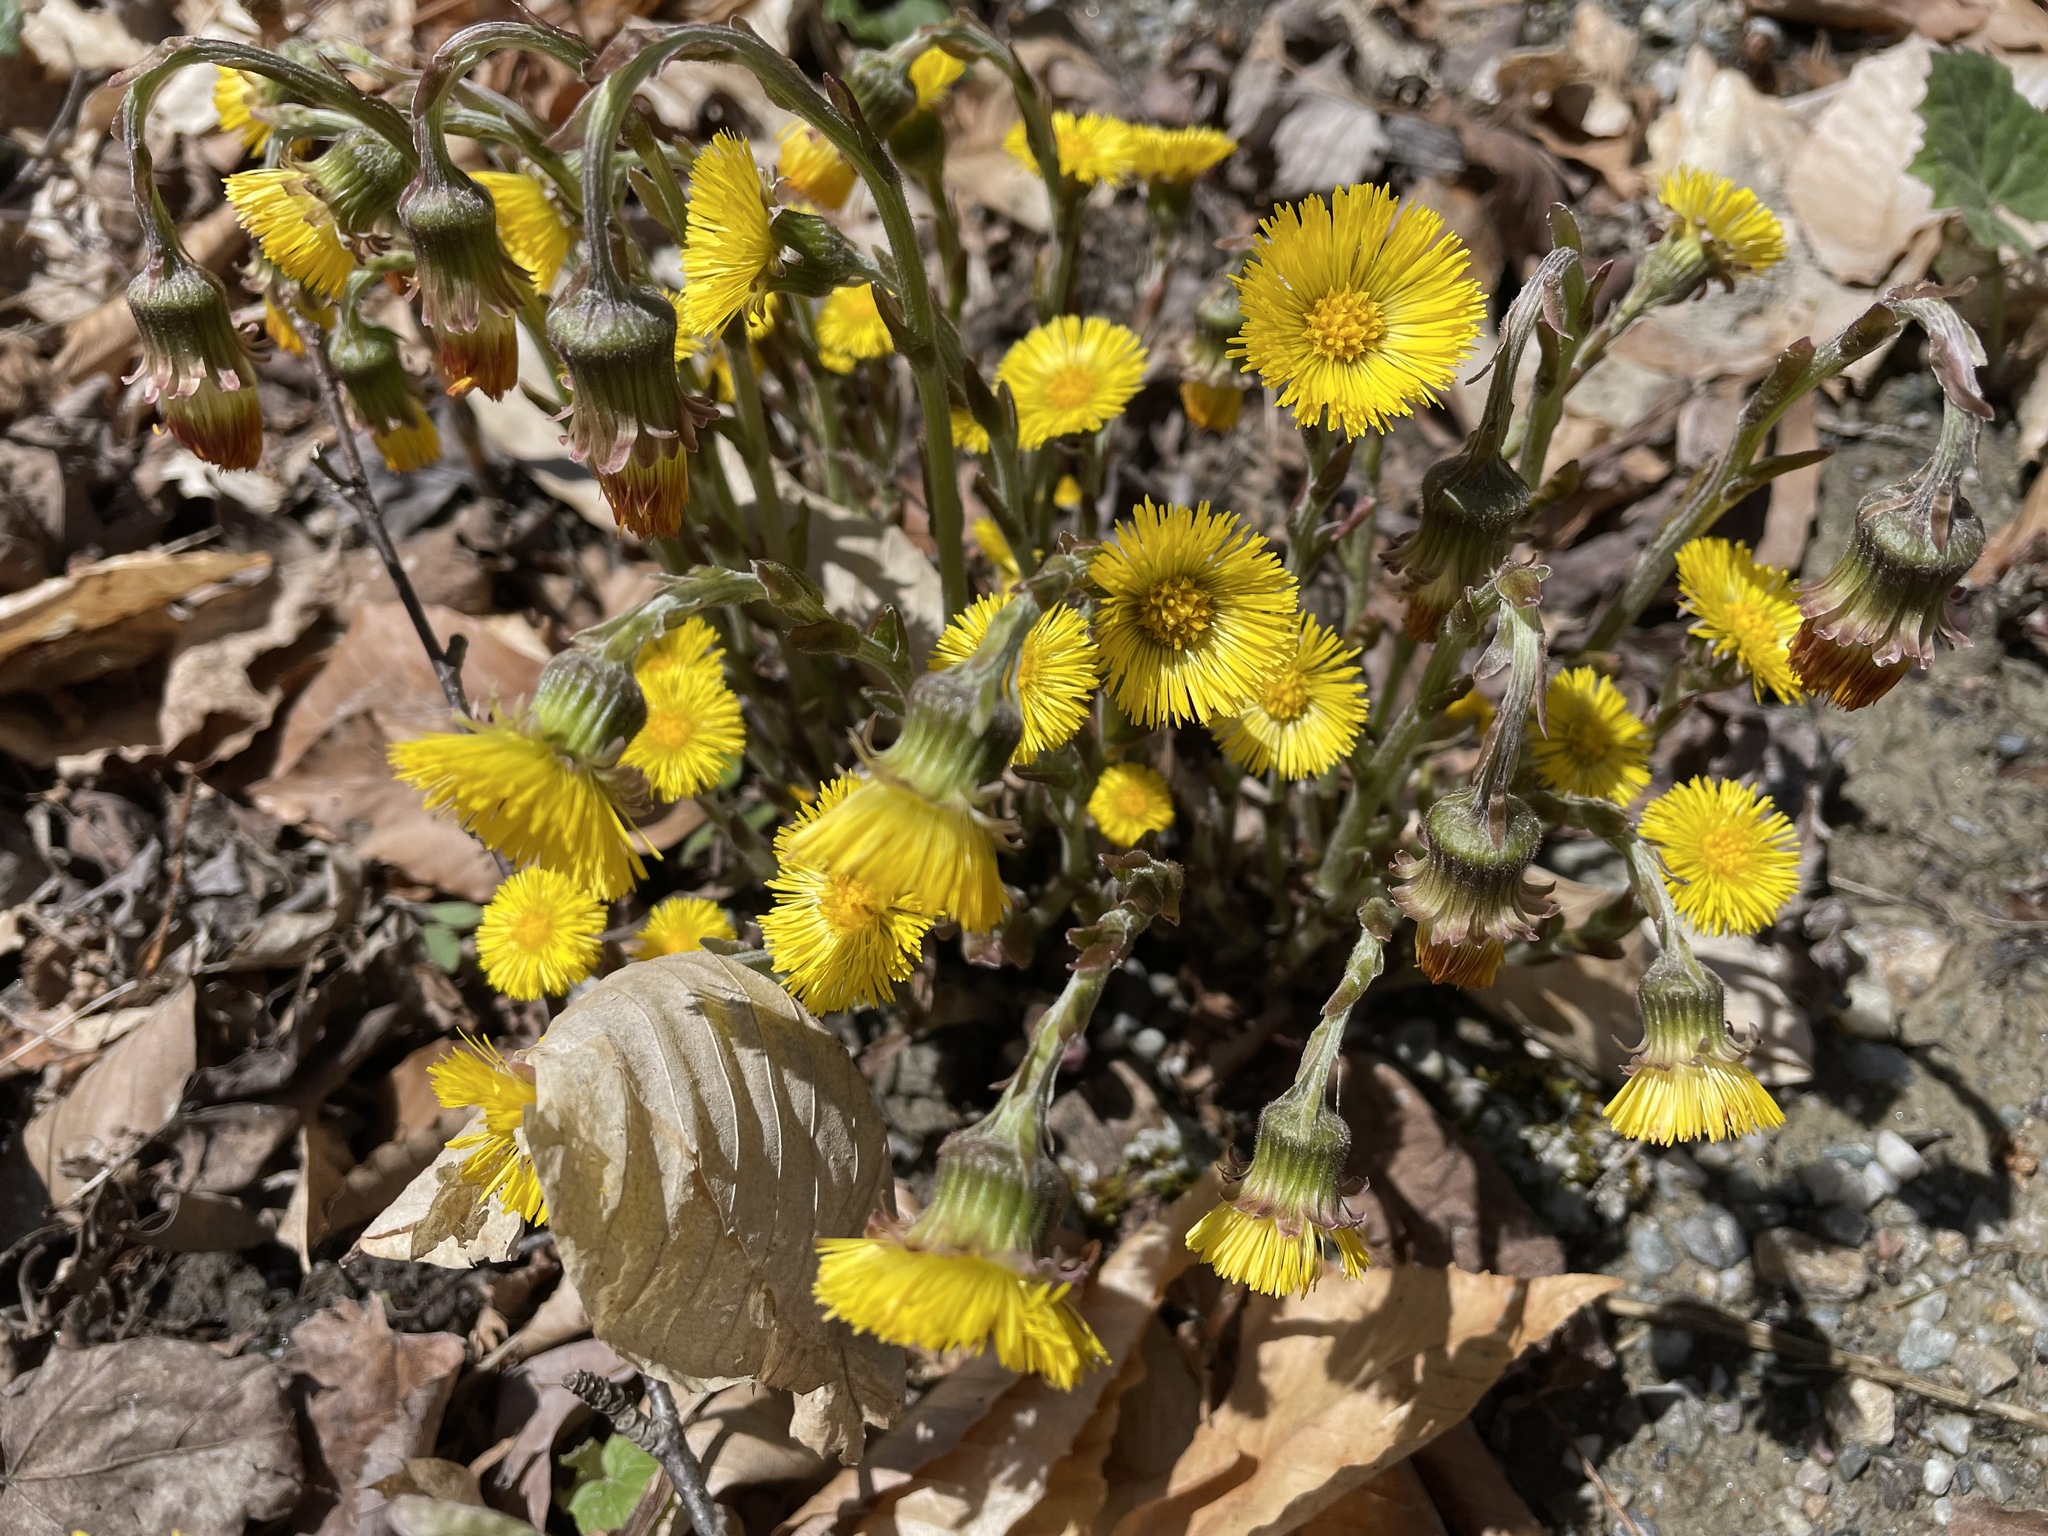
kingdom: Plantae
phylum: Tracheophyta
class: Magnoliopsida
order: Asterales
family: Asteraceae
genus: Tussilago
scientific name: Tussilago farfara
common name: Coltsfoot
